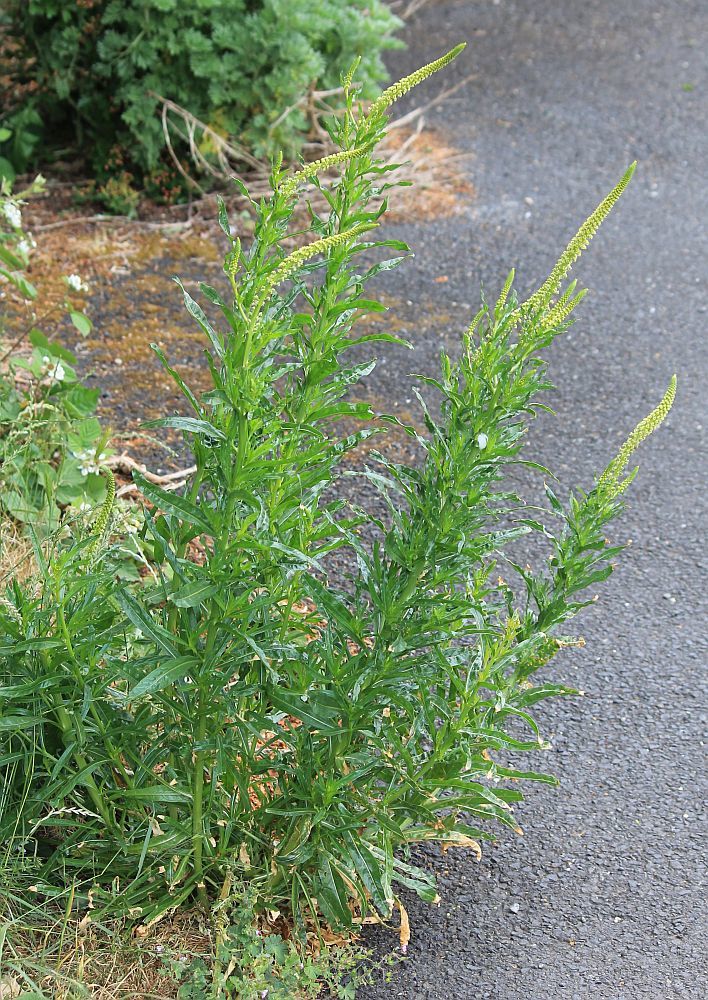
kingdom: Plantae
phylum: Tracheophyta
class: Magnoliopsida
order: Brassicales
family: Resedaceae
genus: Reseda
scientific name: Reseda luteola
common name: Weld
